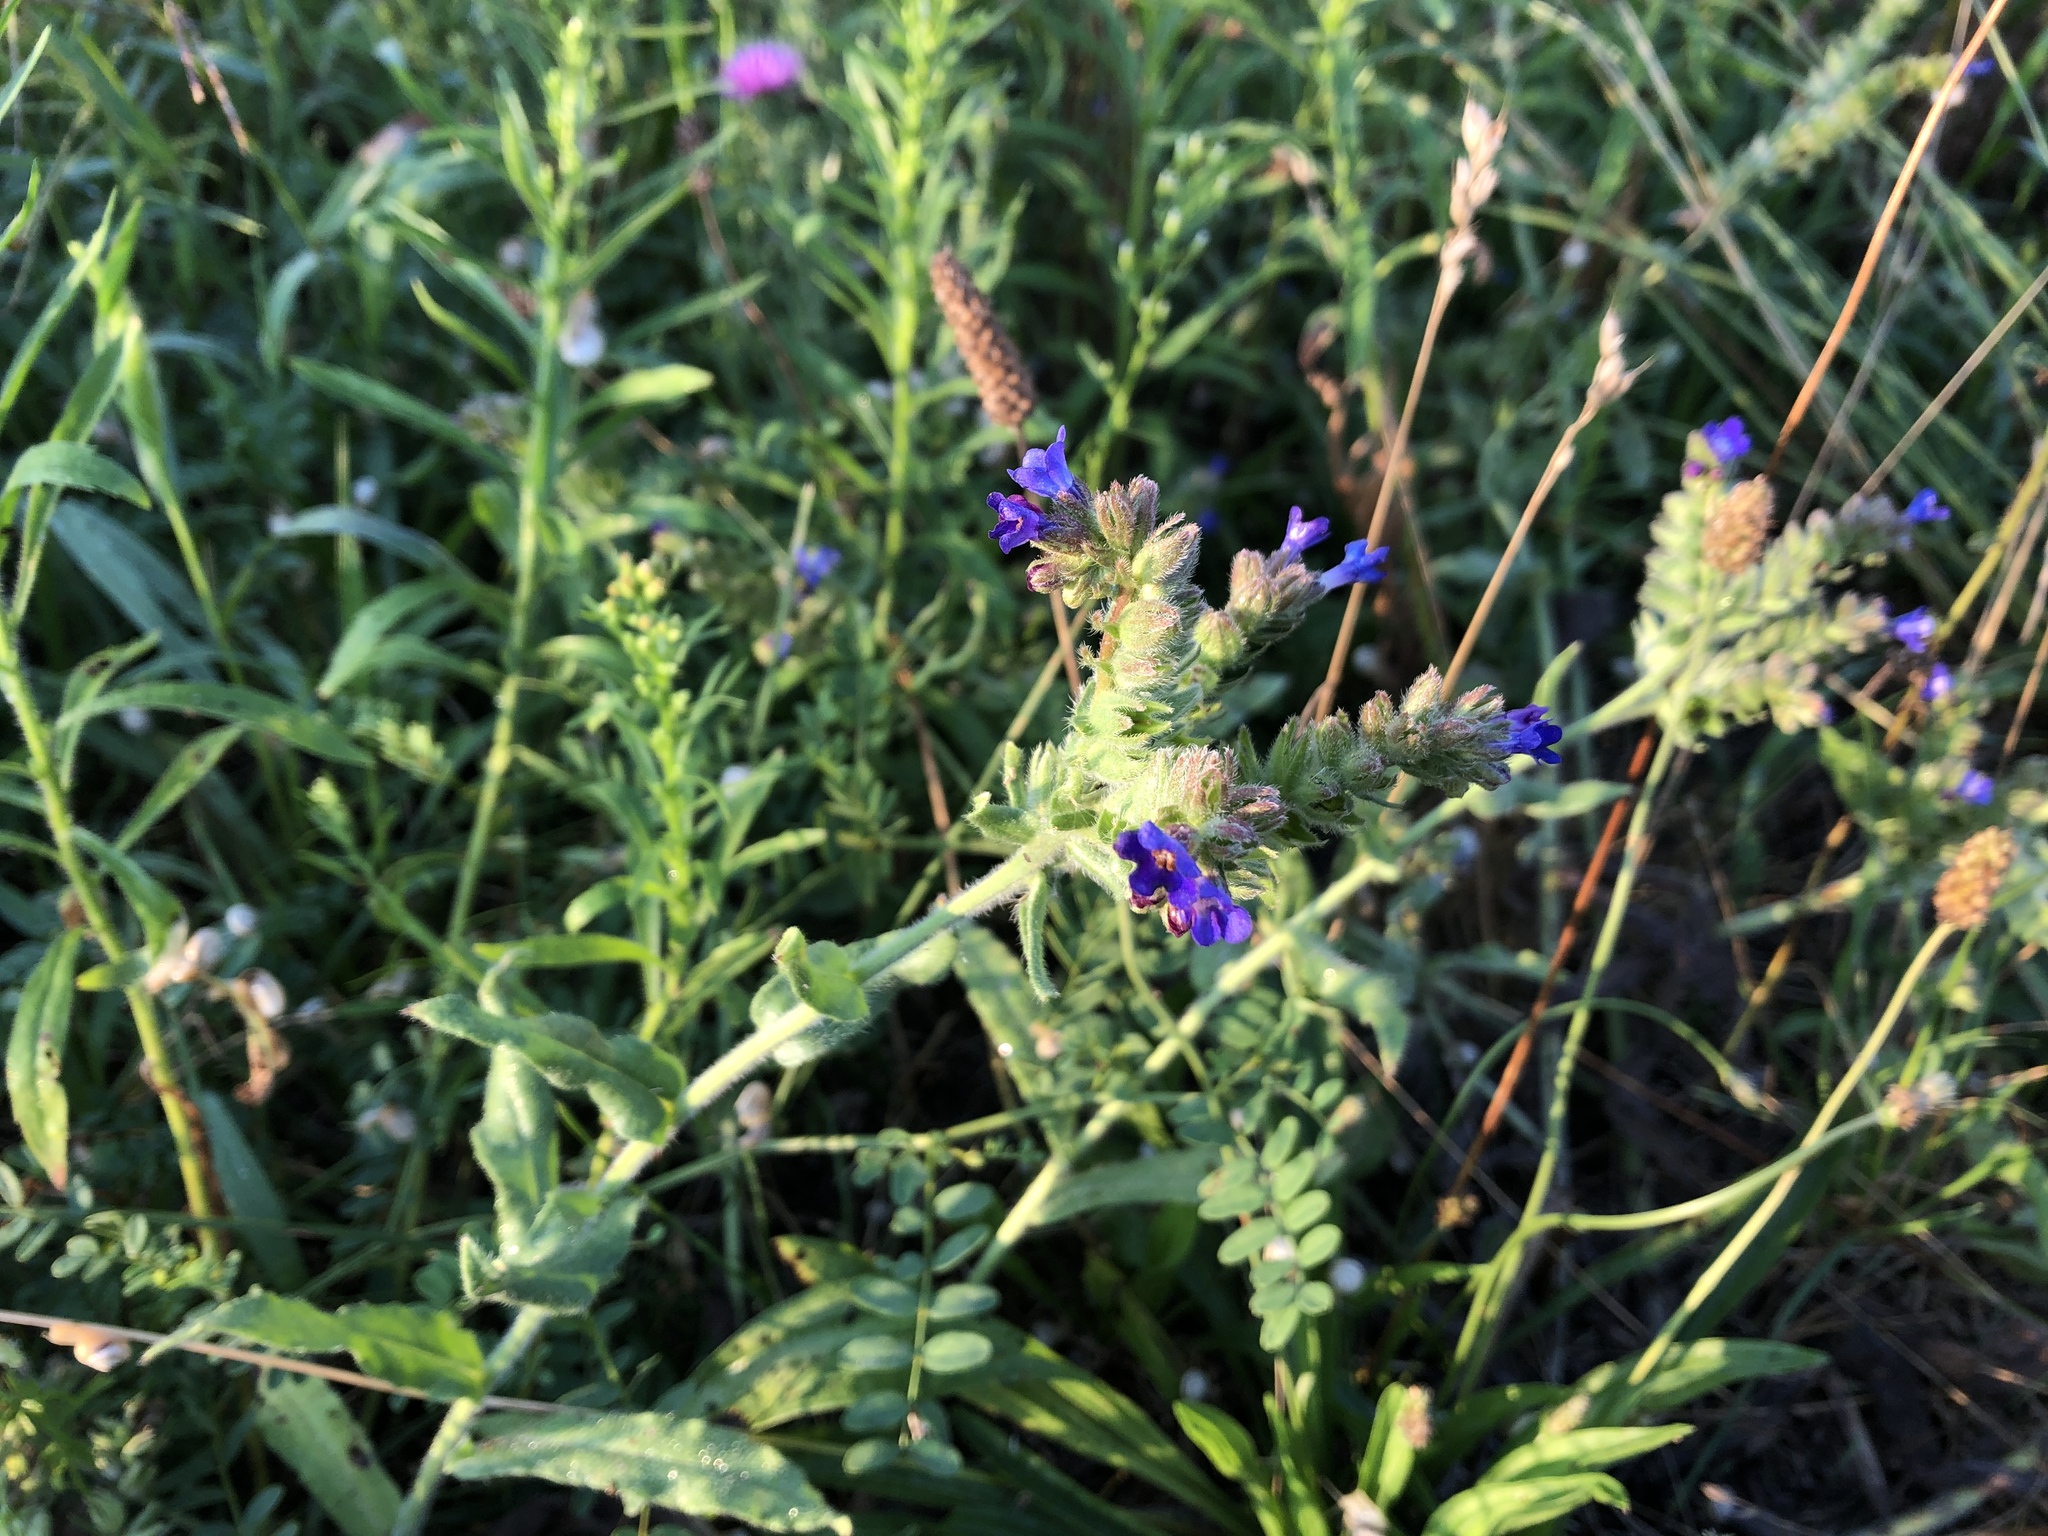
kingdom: Plantae
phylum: Tracheophyta
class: Magnoliopsida
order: Boraginales
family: Boraginaceae
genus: Anchusa
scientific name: Anchusa officinalis
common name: Alkanet
